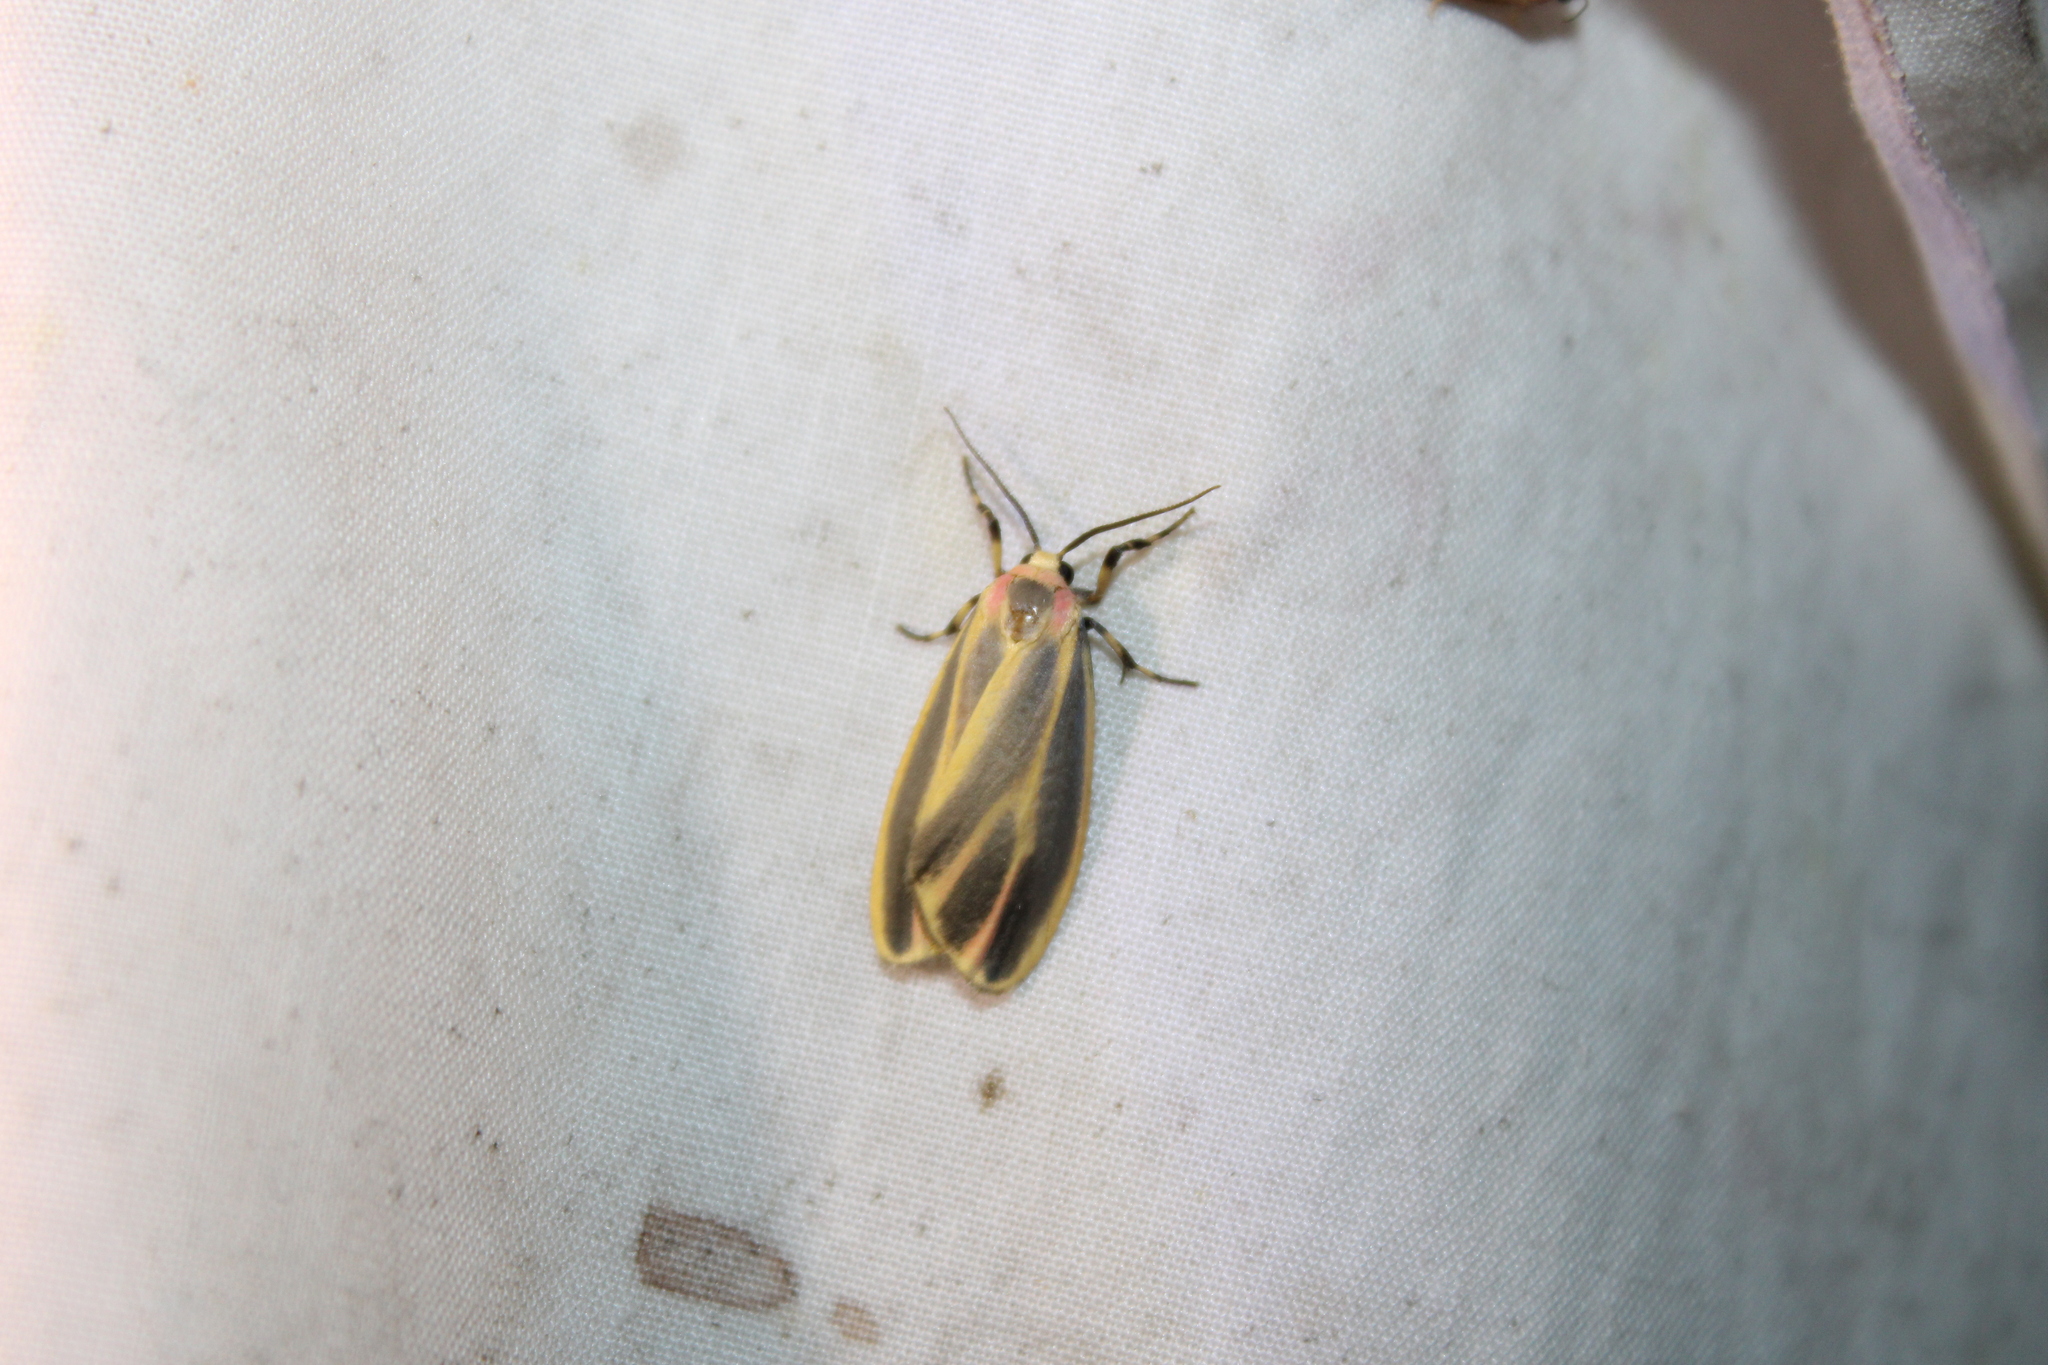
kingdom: Animalia
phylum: Arthropoda
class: Insecta
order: Lepidoptera
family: Erebidae
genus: Hypoprepia
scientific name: Hypoprepia fucosa
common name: Painted lichen moth
